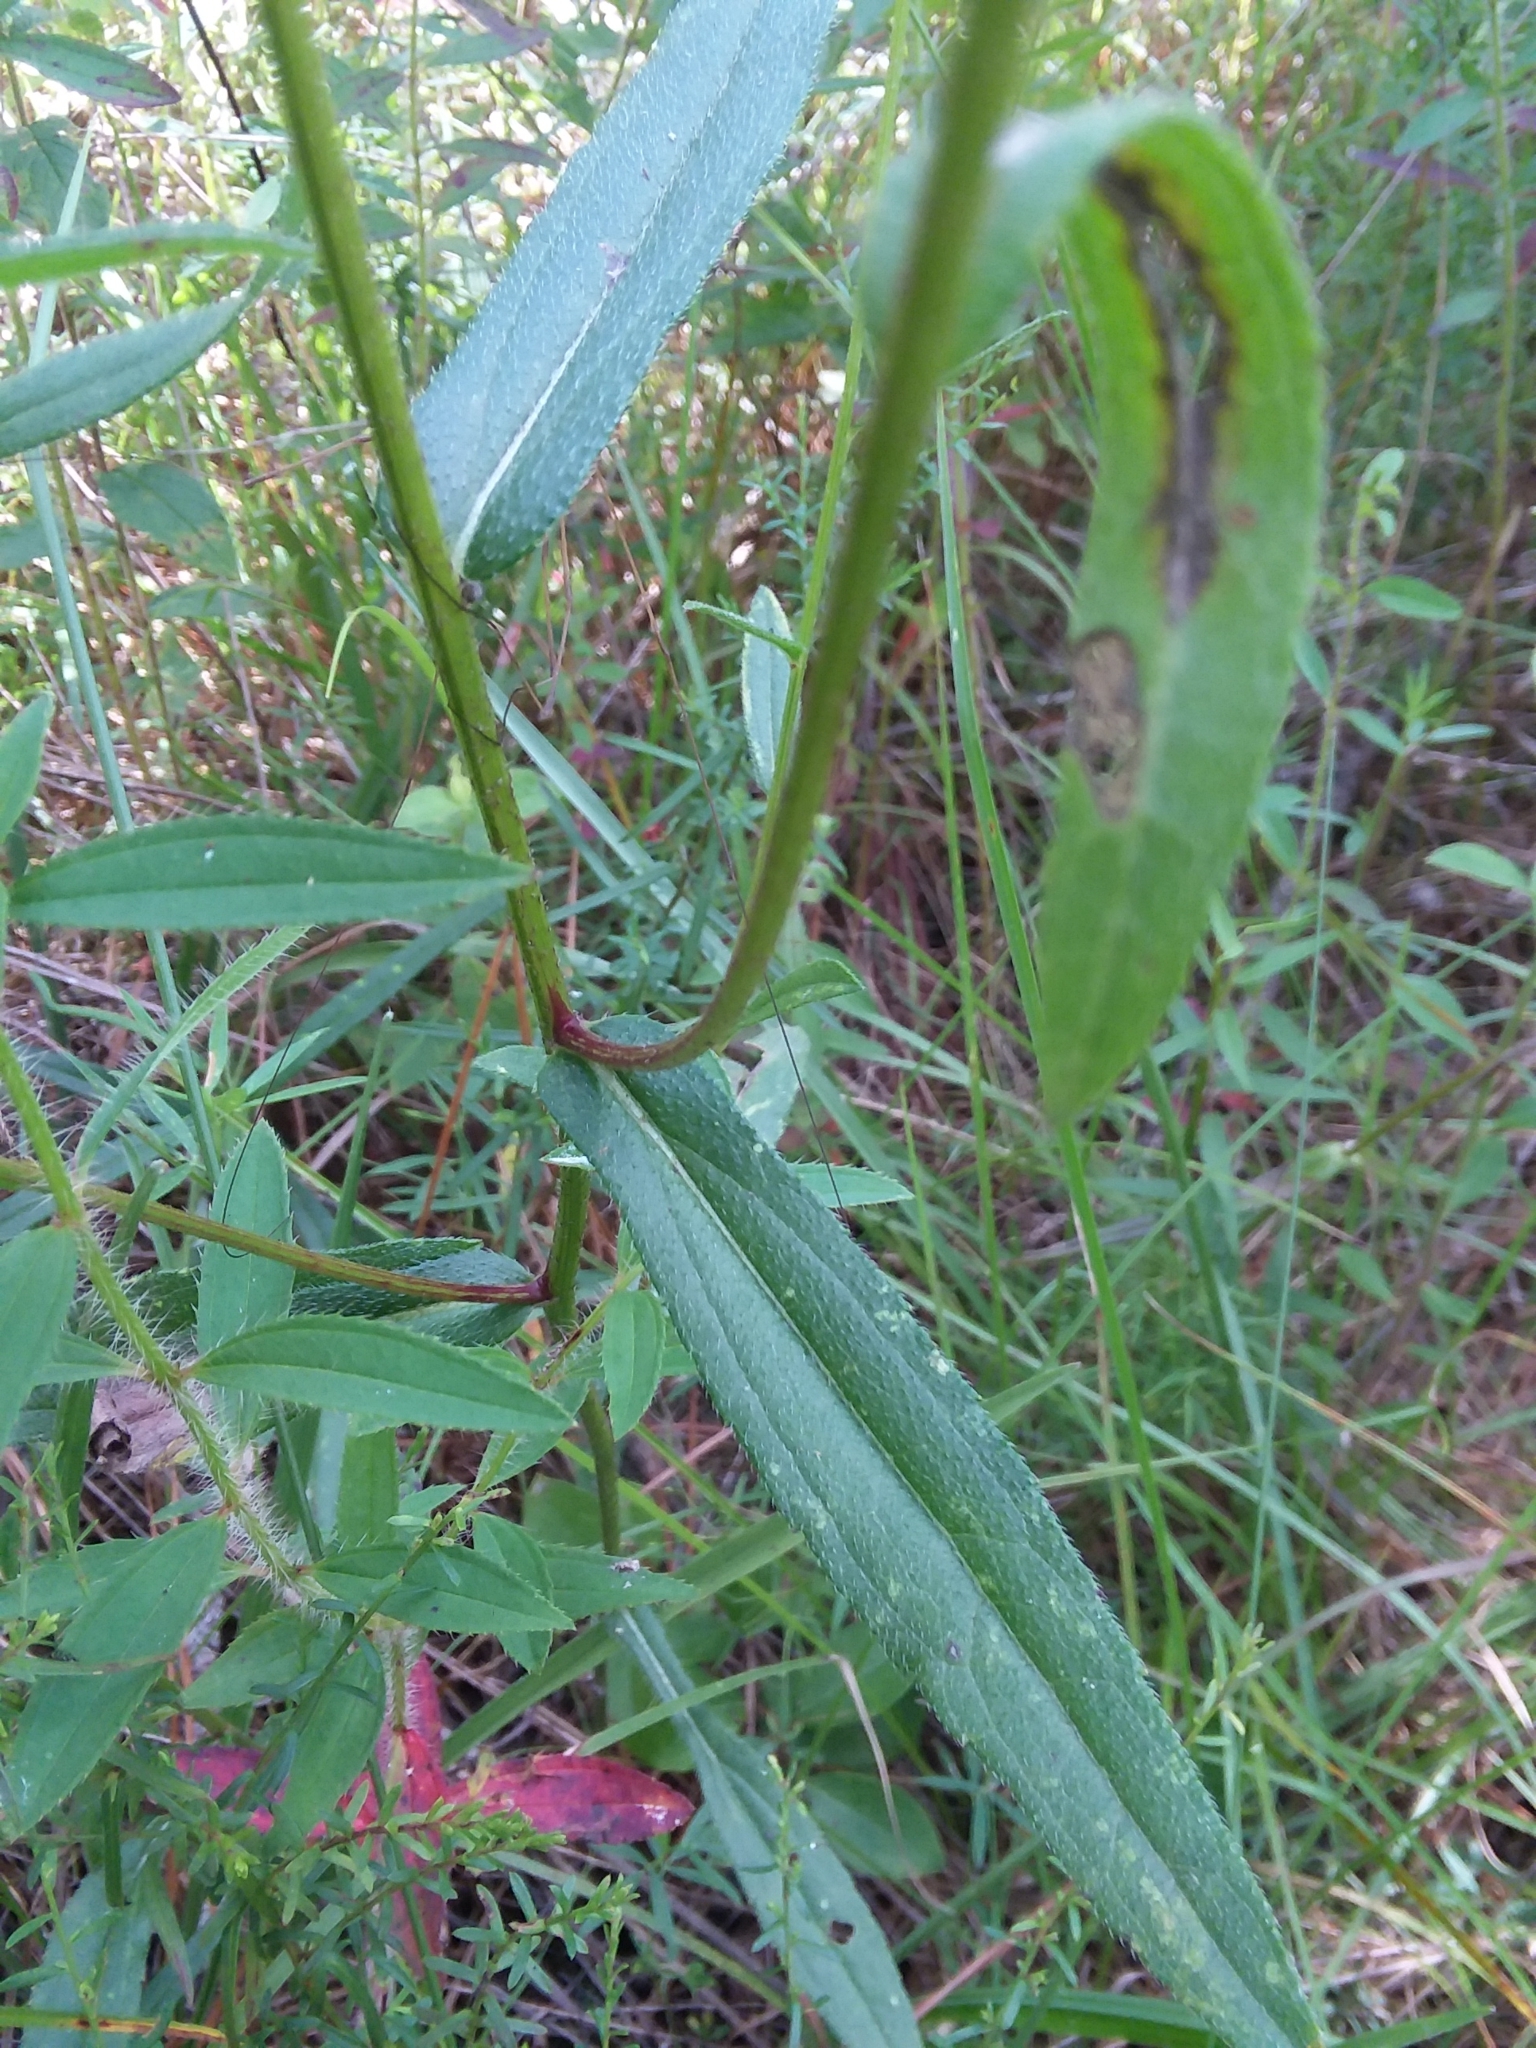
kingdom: Plantae
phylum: Tracheophyta
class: Magnoliopsida
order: Asterales
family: Asteraceae
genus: Rudbeckia
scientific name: Rudbeckia hirta
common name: Black-eyed-susan
